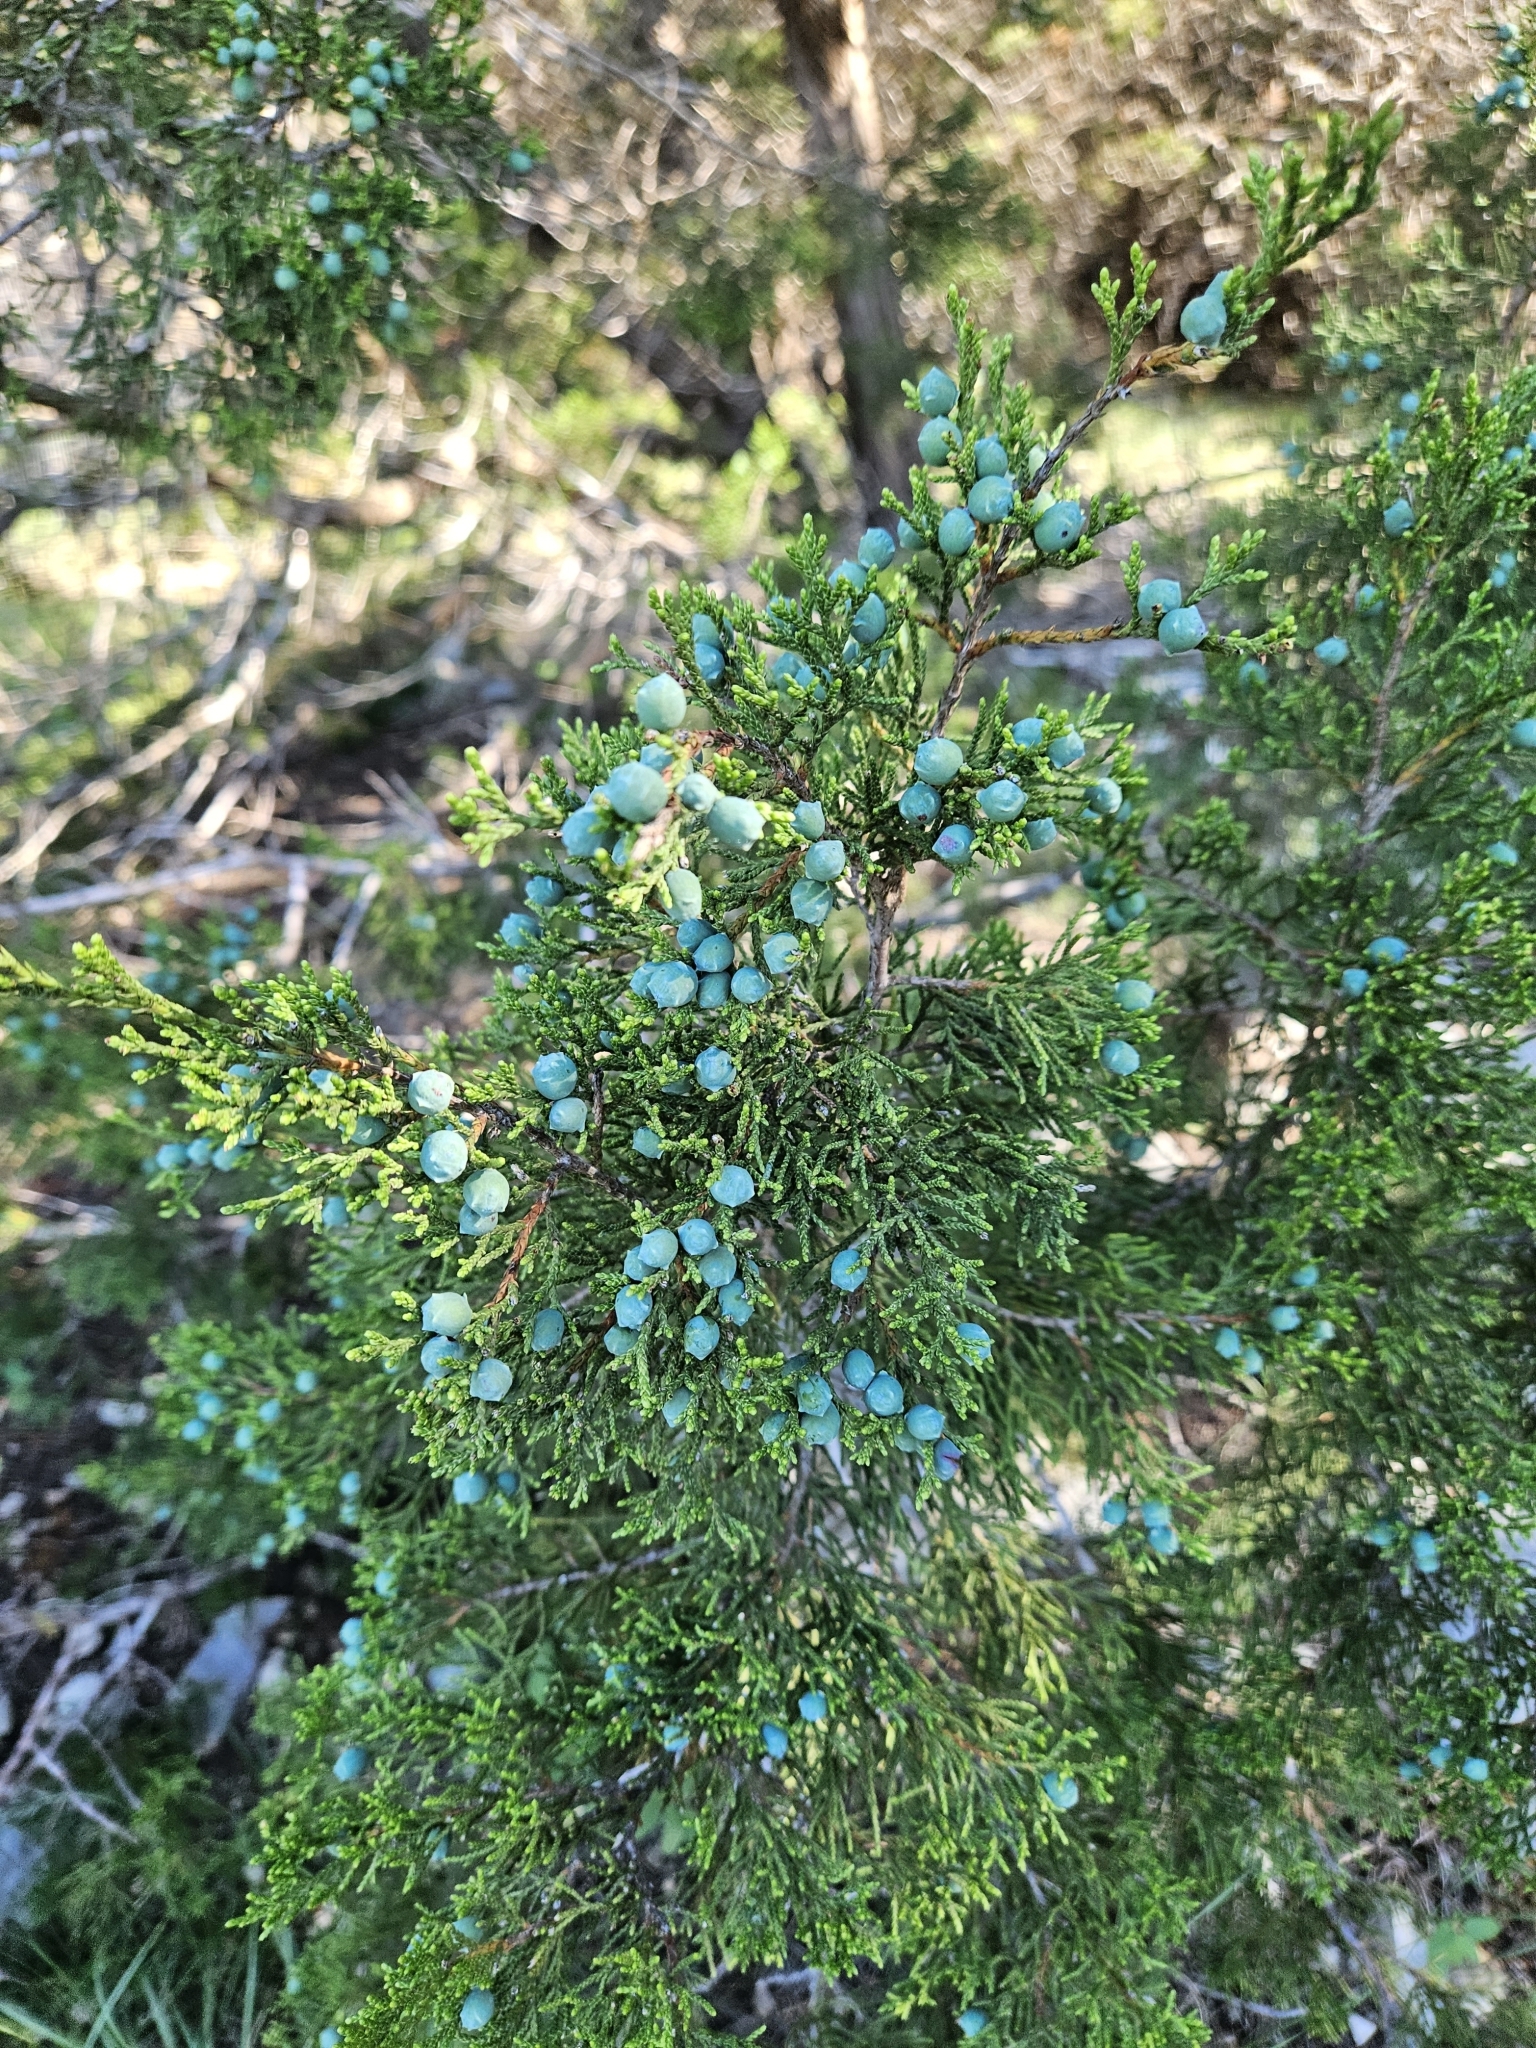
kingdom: Plantae
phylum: Tracheophyta
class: Pinopsida
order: Pinales
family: Cupressaceae
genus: Juniperus
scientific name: Juniperus ashei
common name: Mexican juniper
